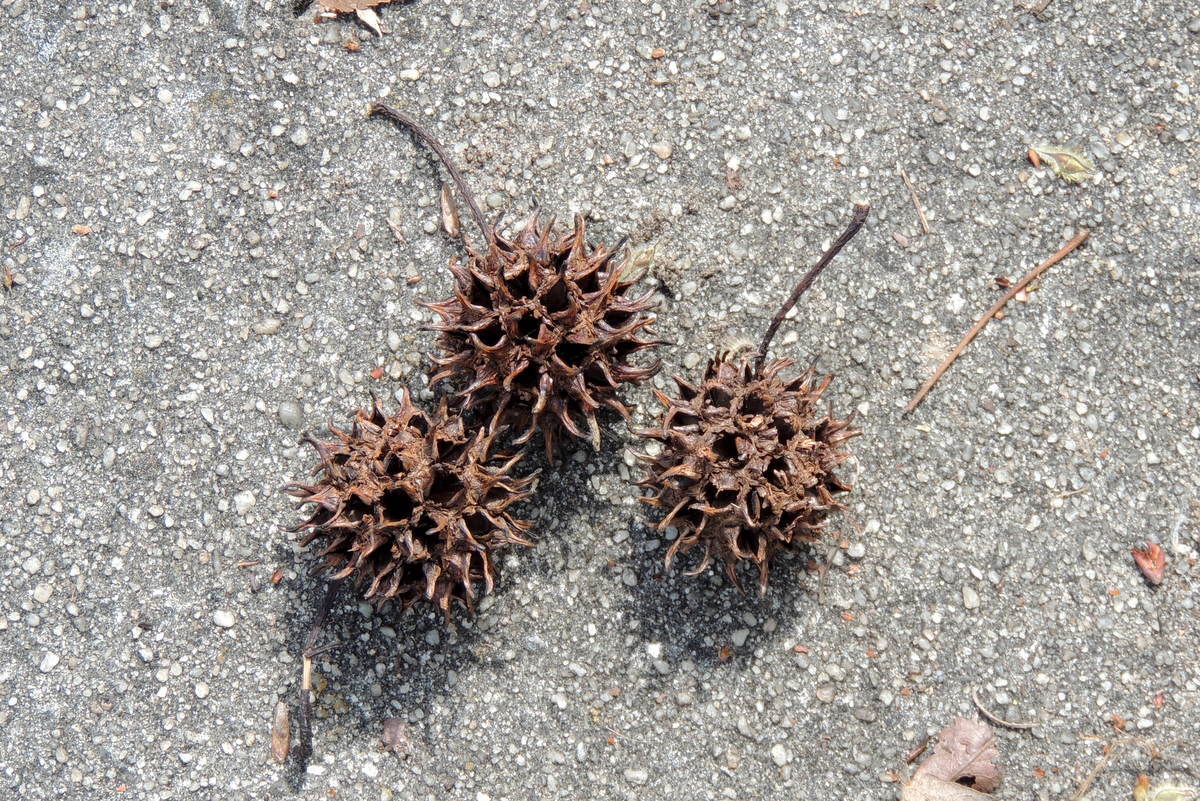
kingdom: Plantae
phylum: Tracheophyta
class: Magnoliopsida
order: Saxifragales
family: Altingiaceae
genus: Liquidambar
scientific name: Liquidambar styraciflua
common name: Sweet gum
